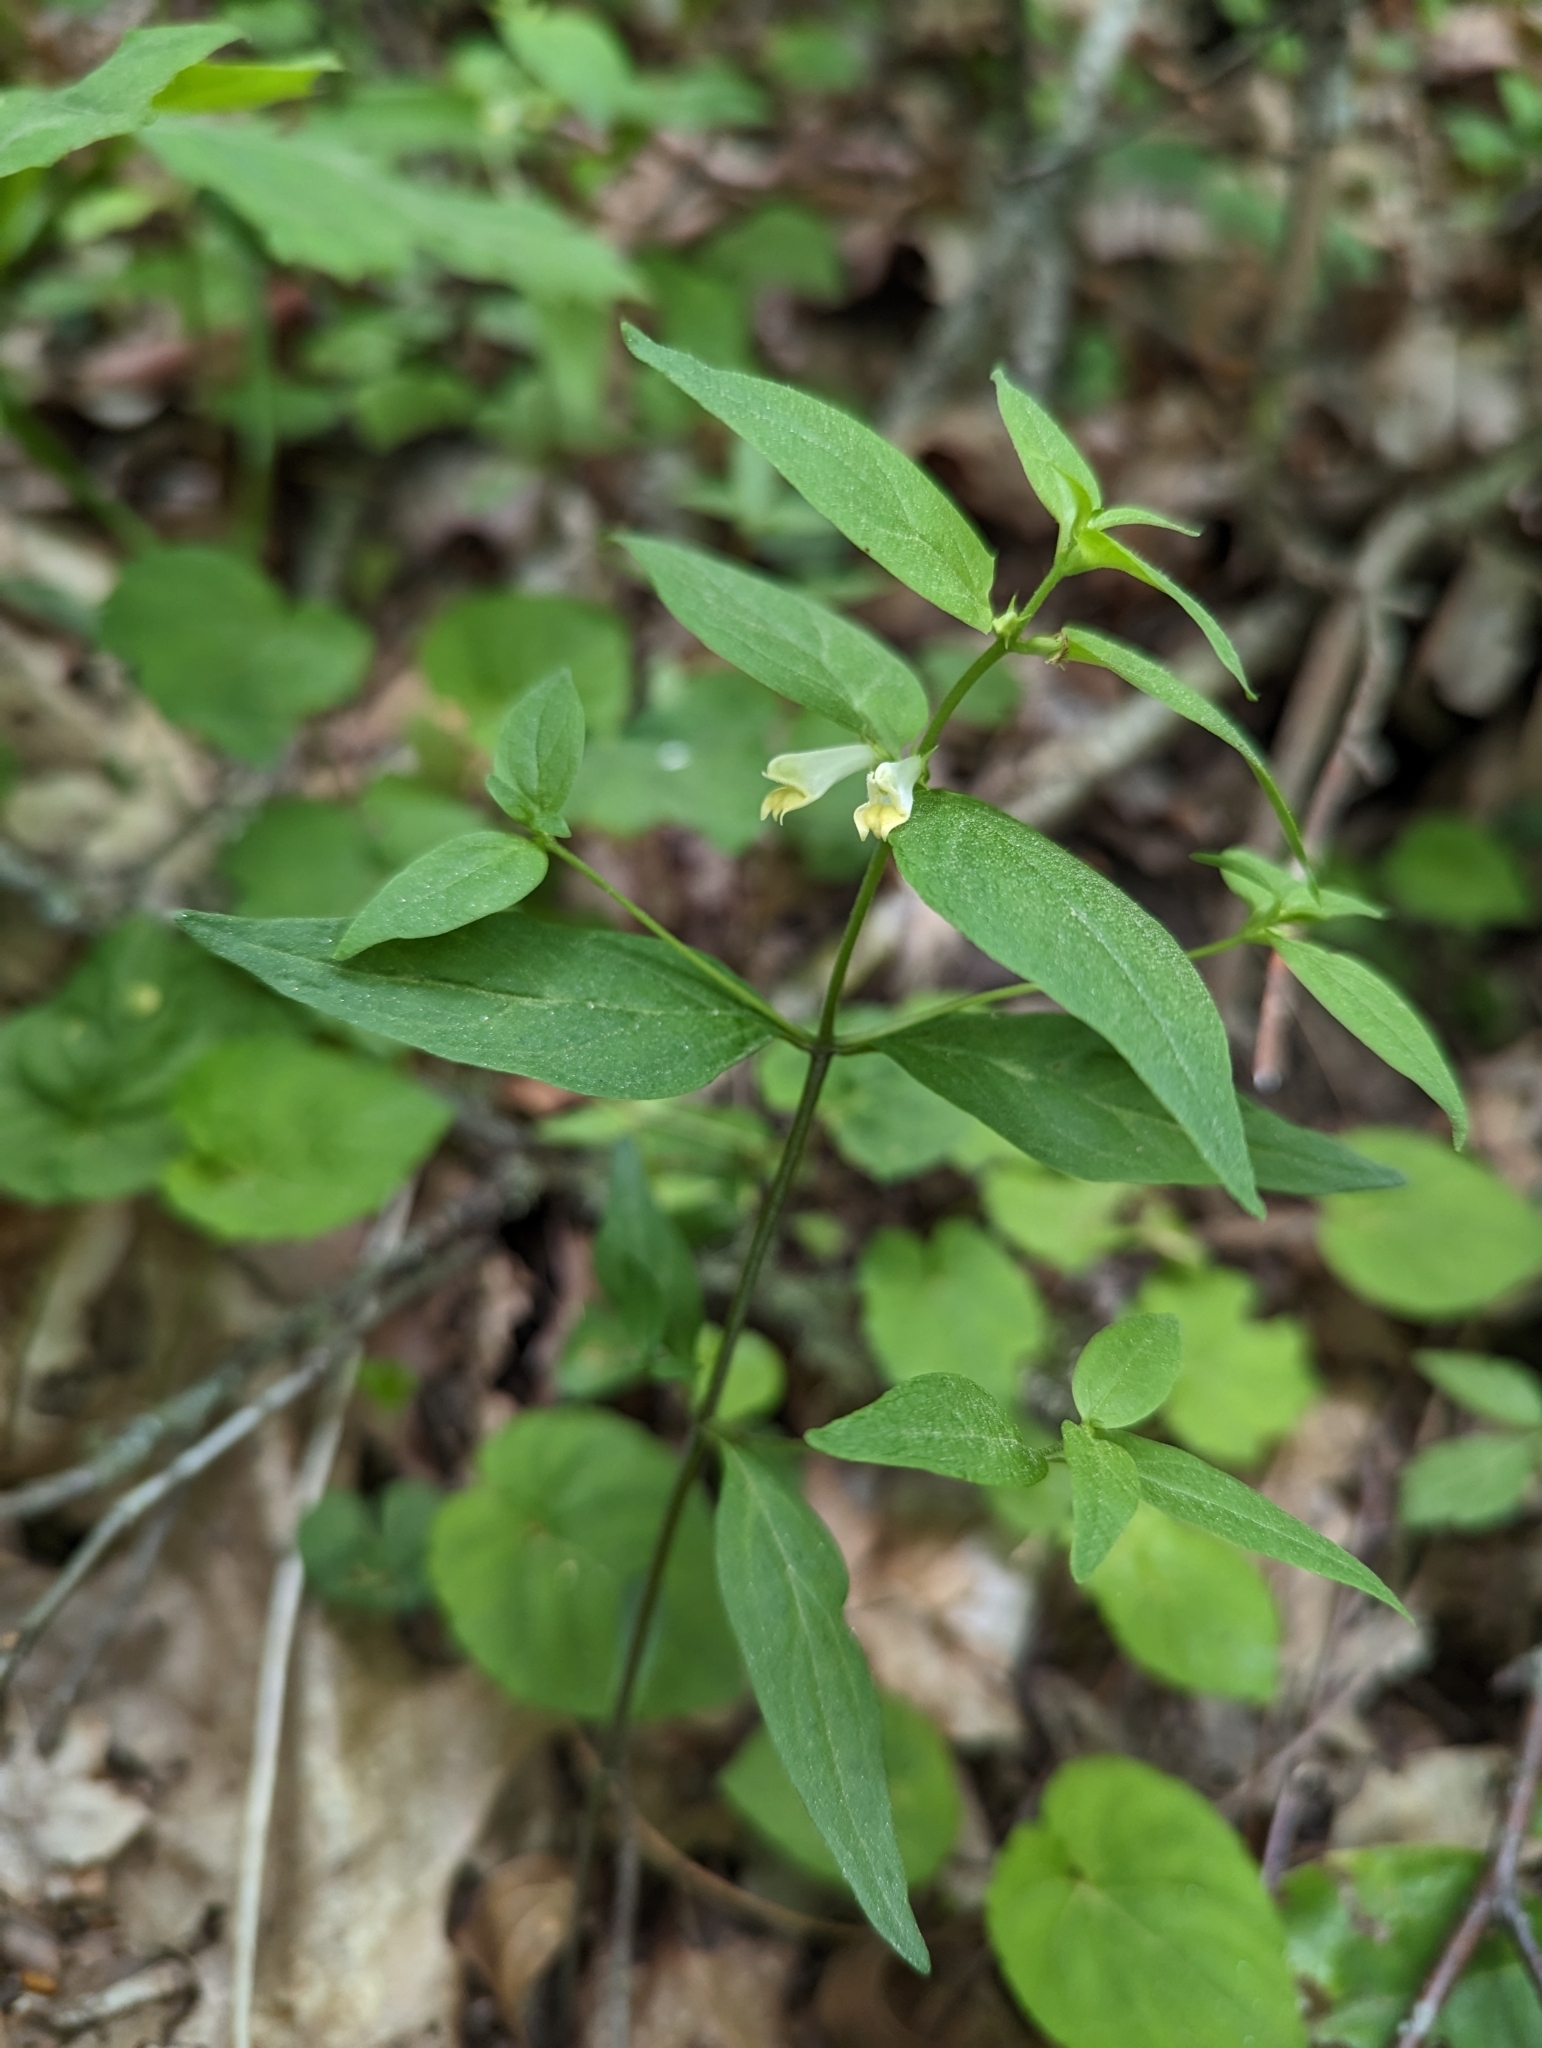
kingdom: Plantae
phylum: Tracheophyta
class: Magnoliopsida
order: Lamiales
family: Orobanchaceae
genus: Melampyrum
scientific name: Melampyrum lineare
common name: American cow-wheat
